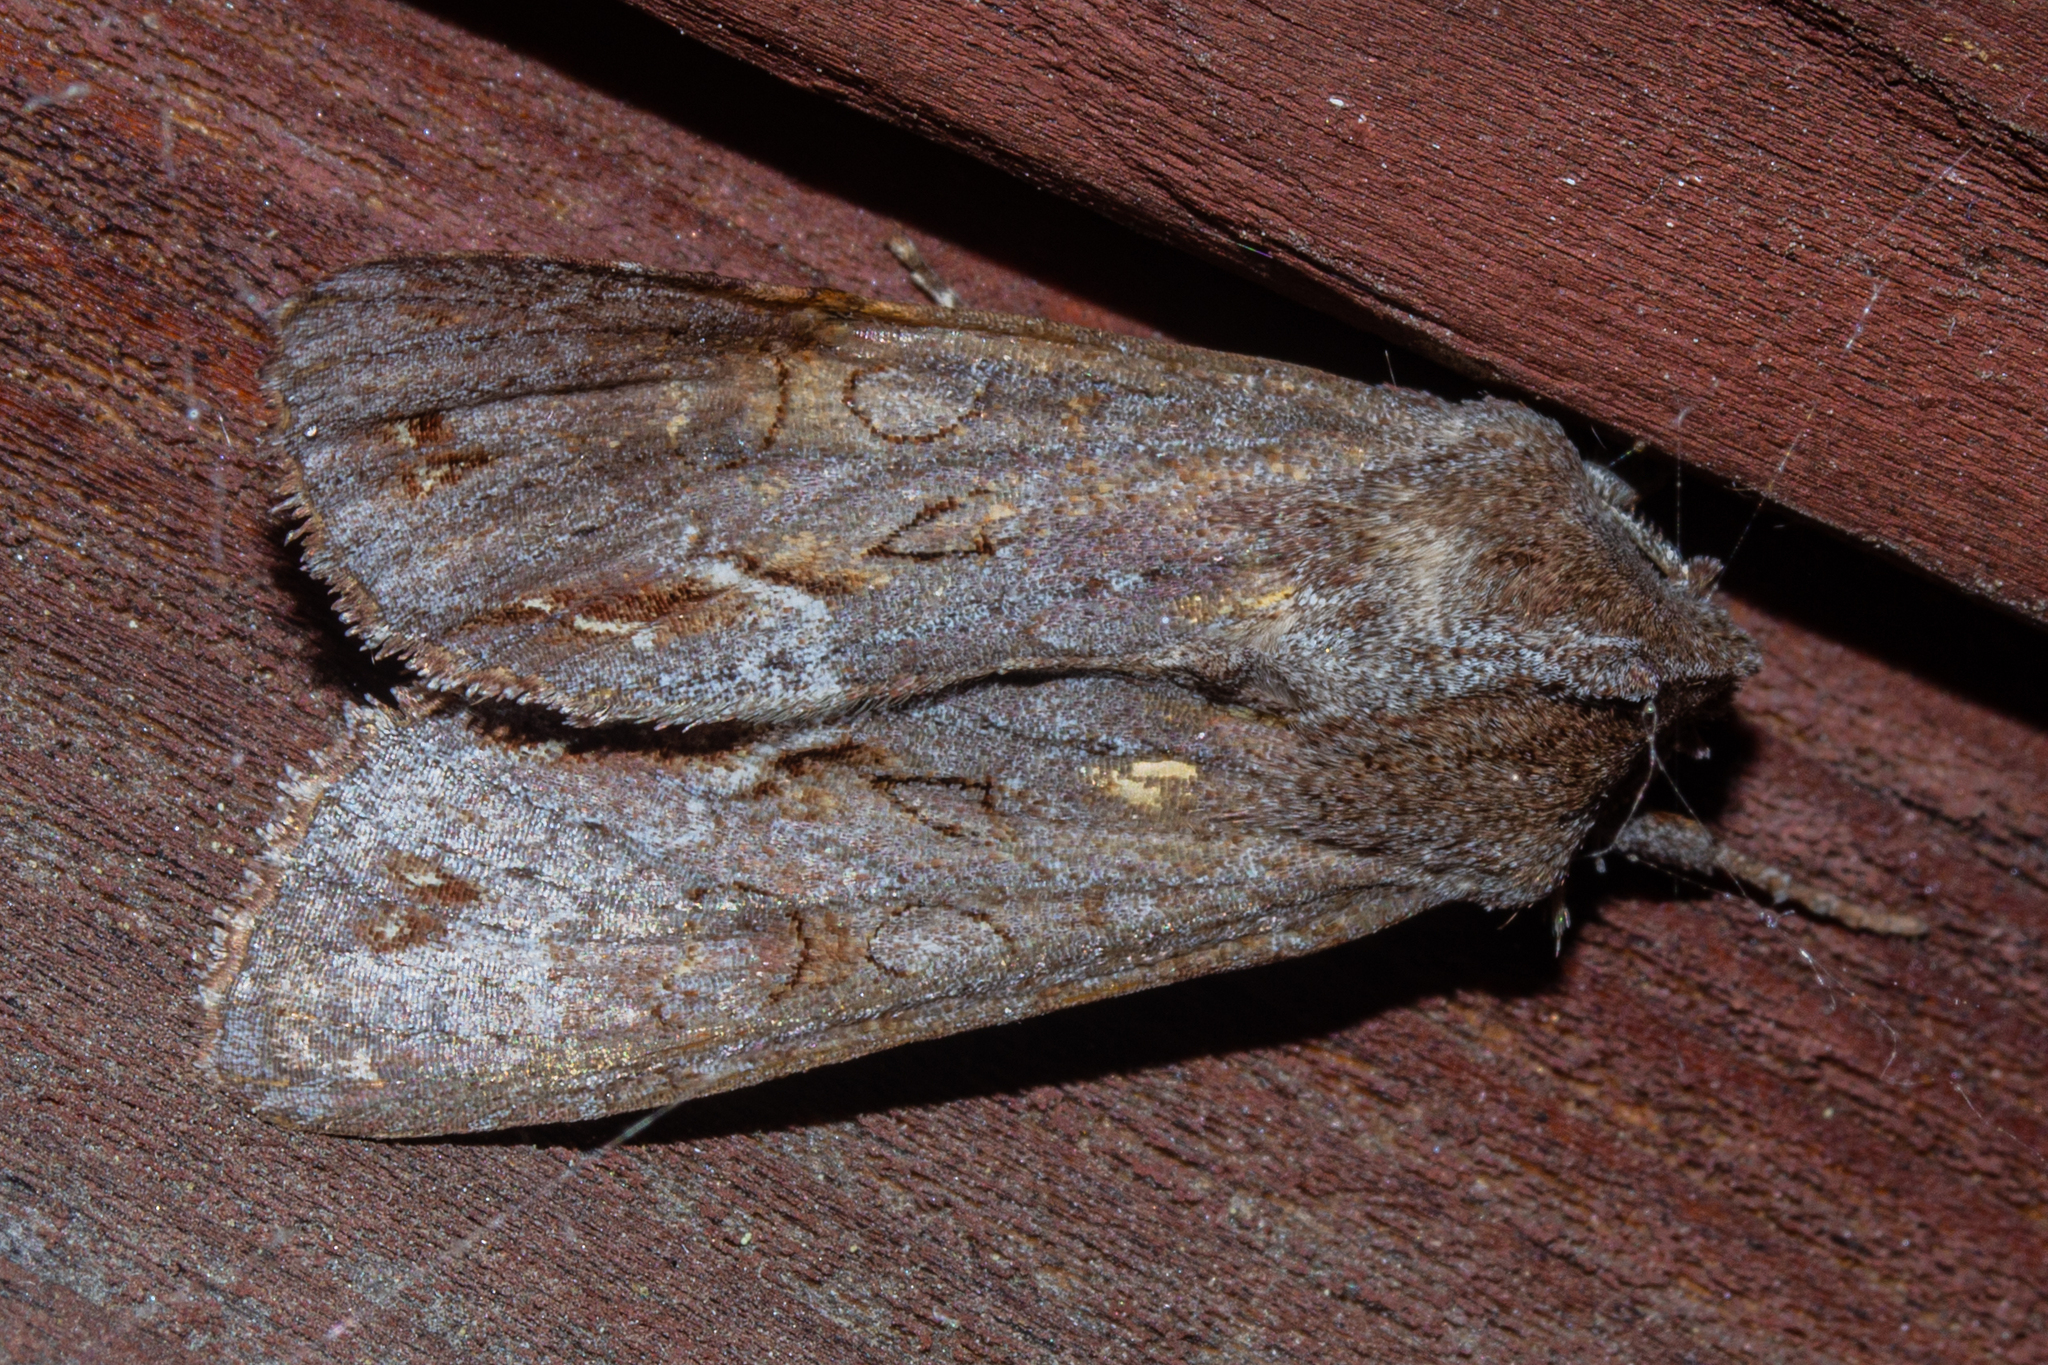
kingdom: Animalia
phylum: Arthropoda
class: Insecta
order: Lepidoptera
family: Noctuidae
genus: Ichneutica
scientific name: Ichneutica
